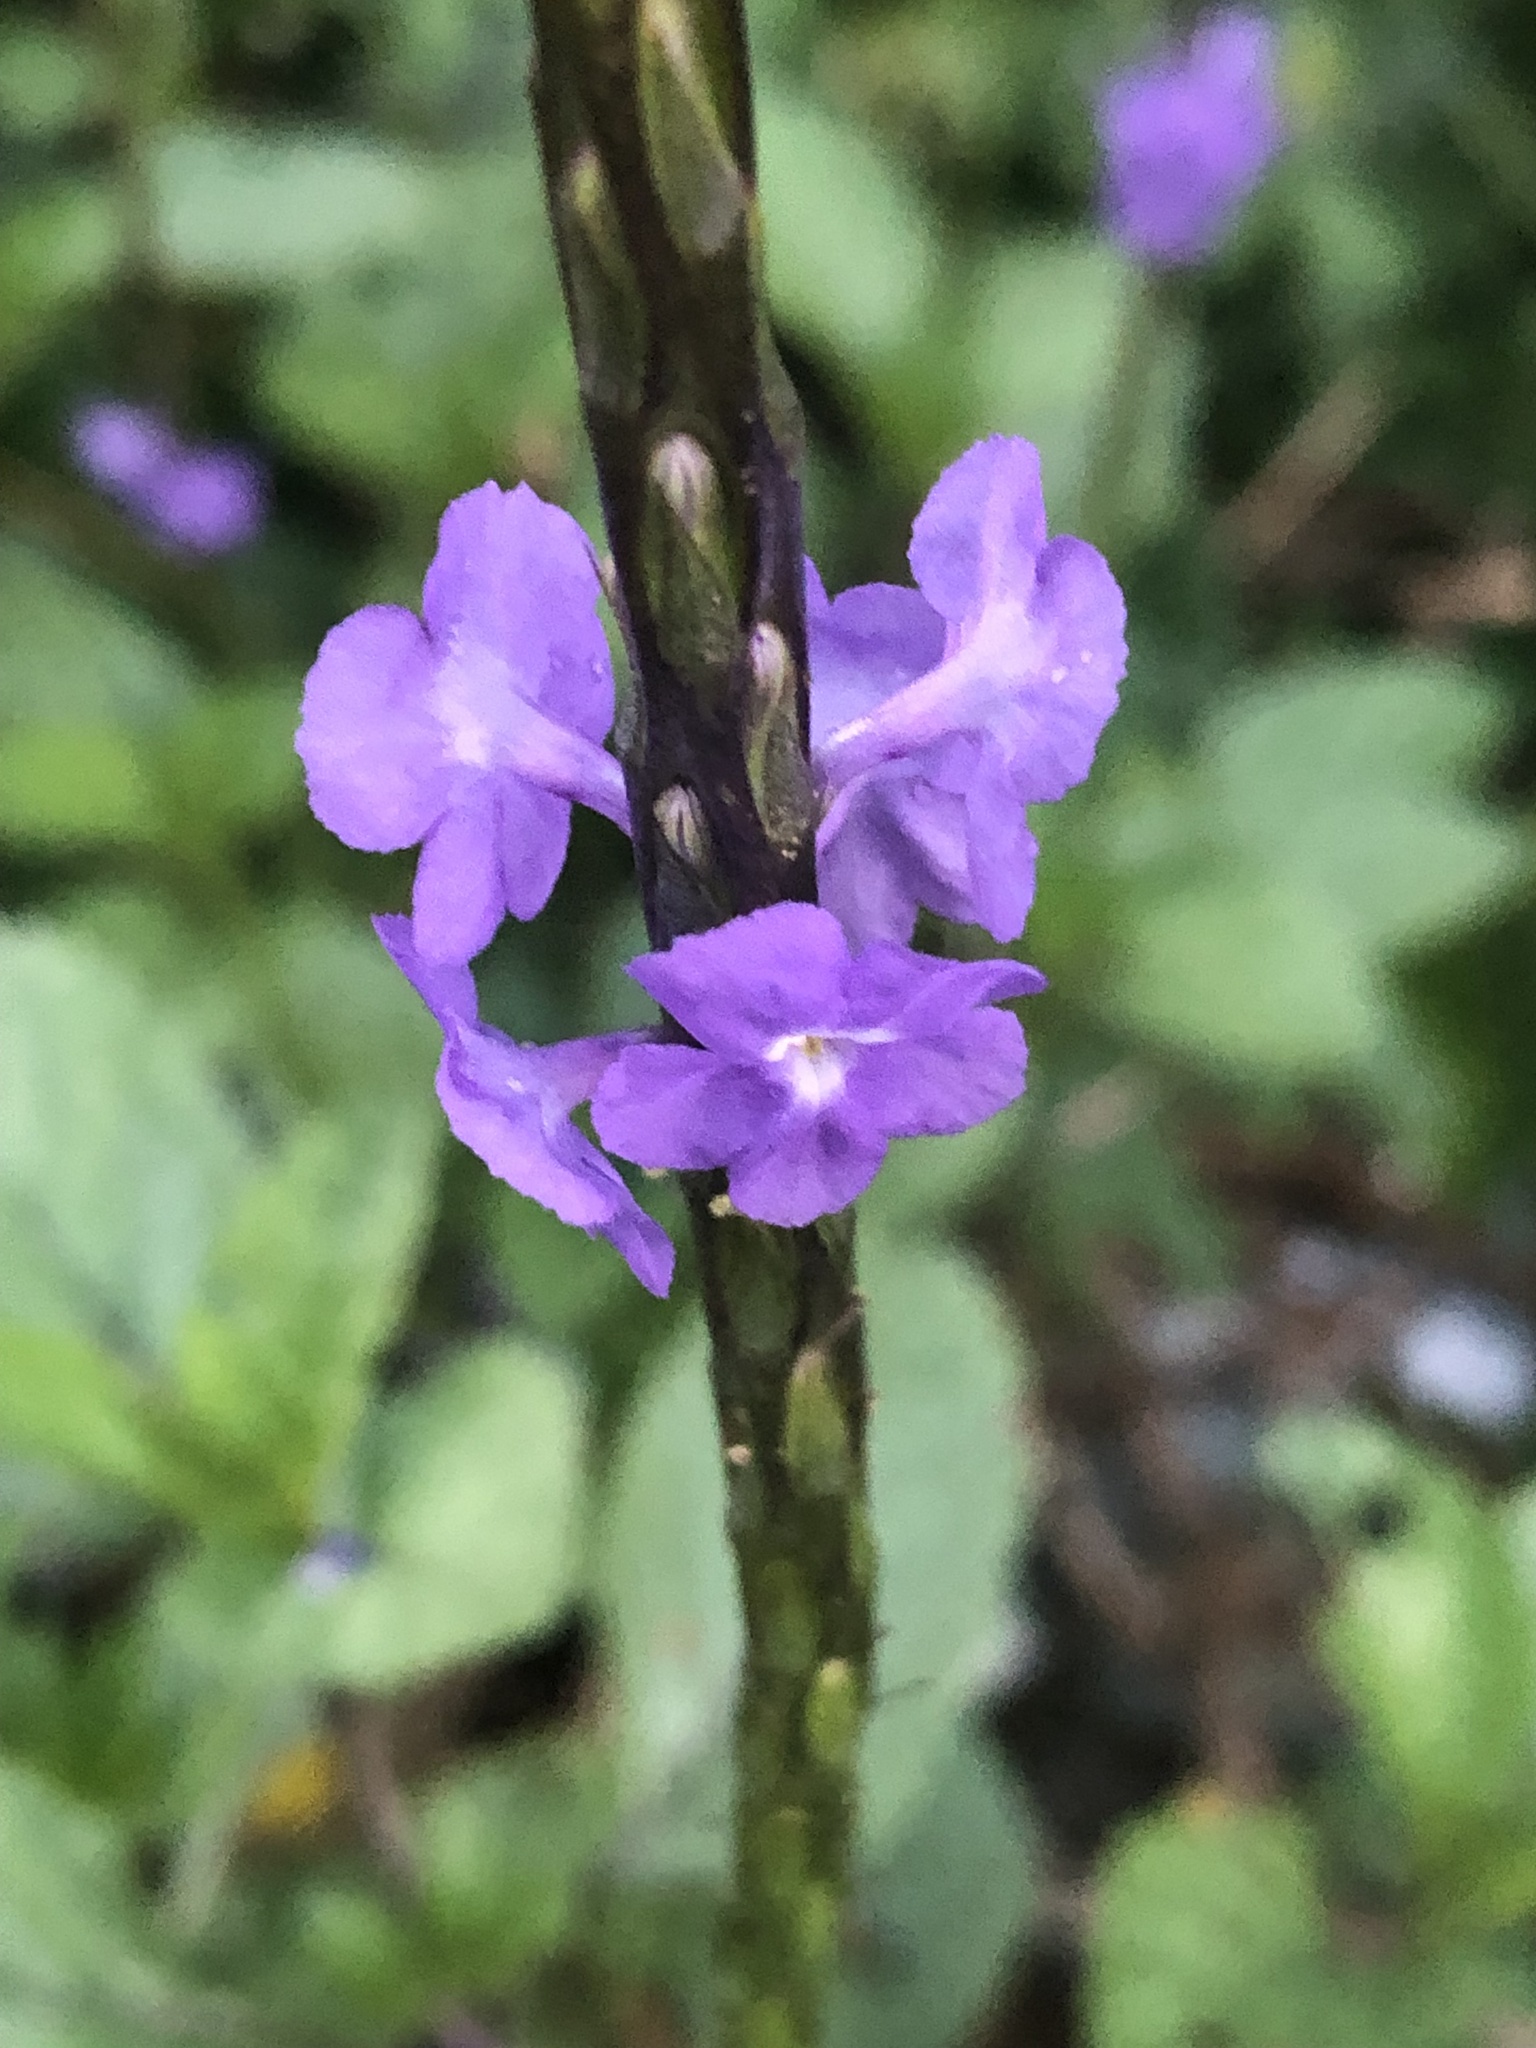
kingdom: Plantae
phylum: Tracheophyta
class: Magnoliopsida
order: Lamiales
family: Verbenaceae
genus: Stachytarpheta
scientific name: Stachytarpheta jamaicensis
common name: Light-blue snakeweed
